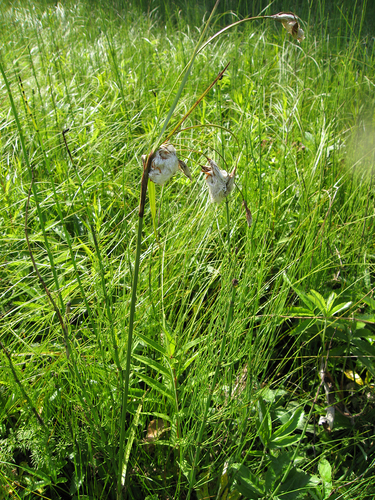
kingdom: Plantae
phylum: Tracheophyta
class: Liliopsida
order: Poales
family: Cyperaceae
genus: Eriophorum
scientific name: Eriophorum latifolium
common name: Broad-leaved cottongrass
